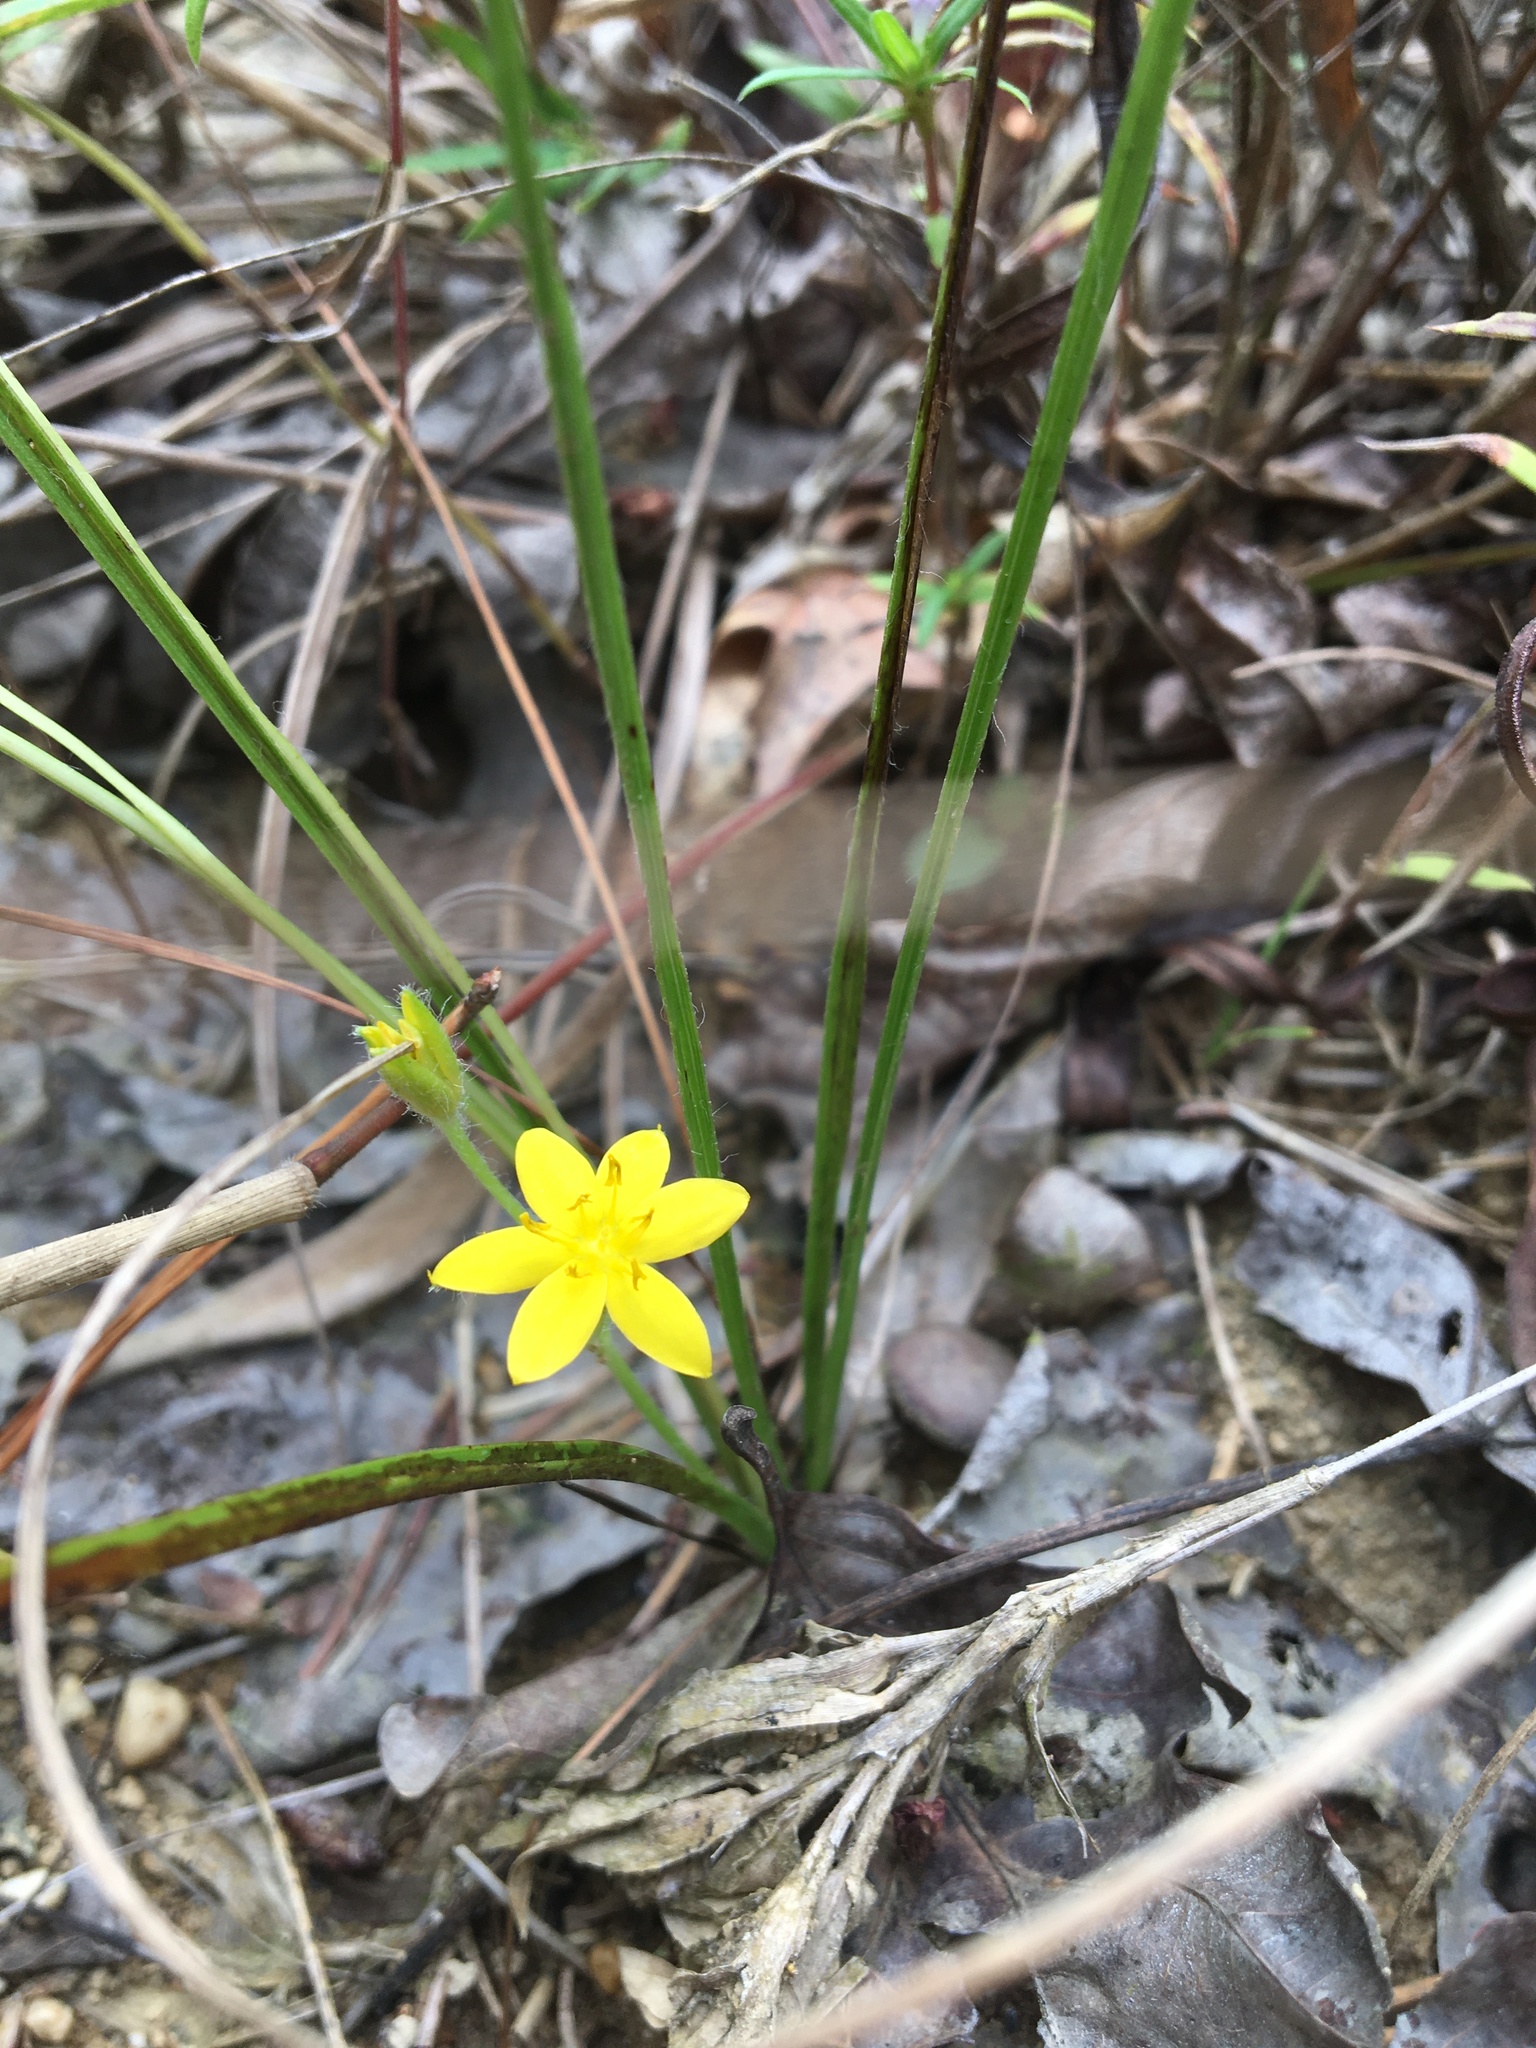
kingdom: Plantae
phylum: Tracheophyta
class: Liliopsida
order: Asparagales
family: Hypoxidaceae
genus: Hypoxis
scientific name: Hypoxis hirsuta
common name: Common goldstar
